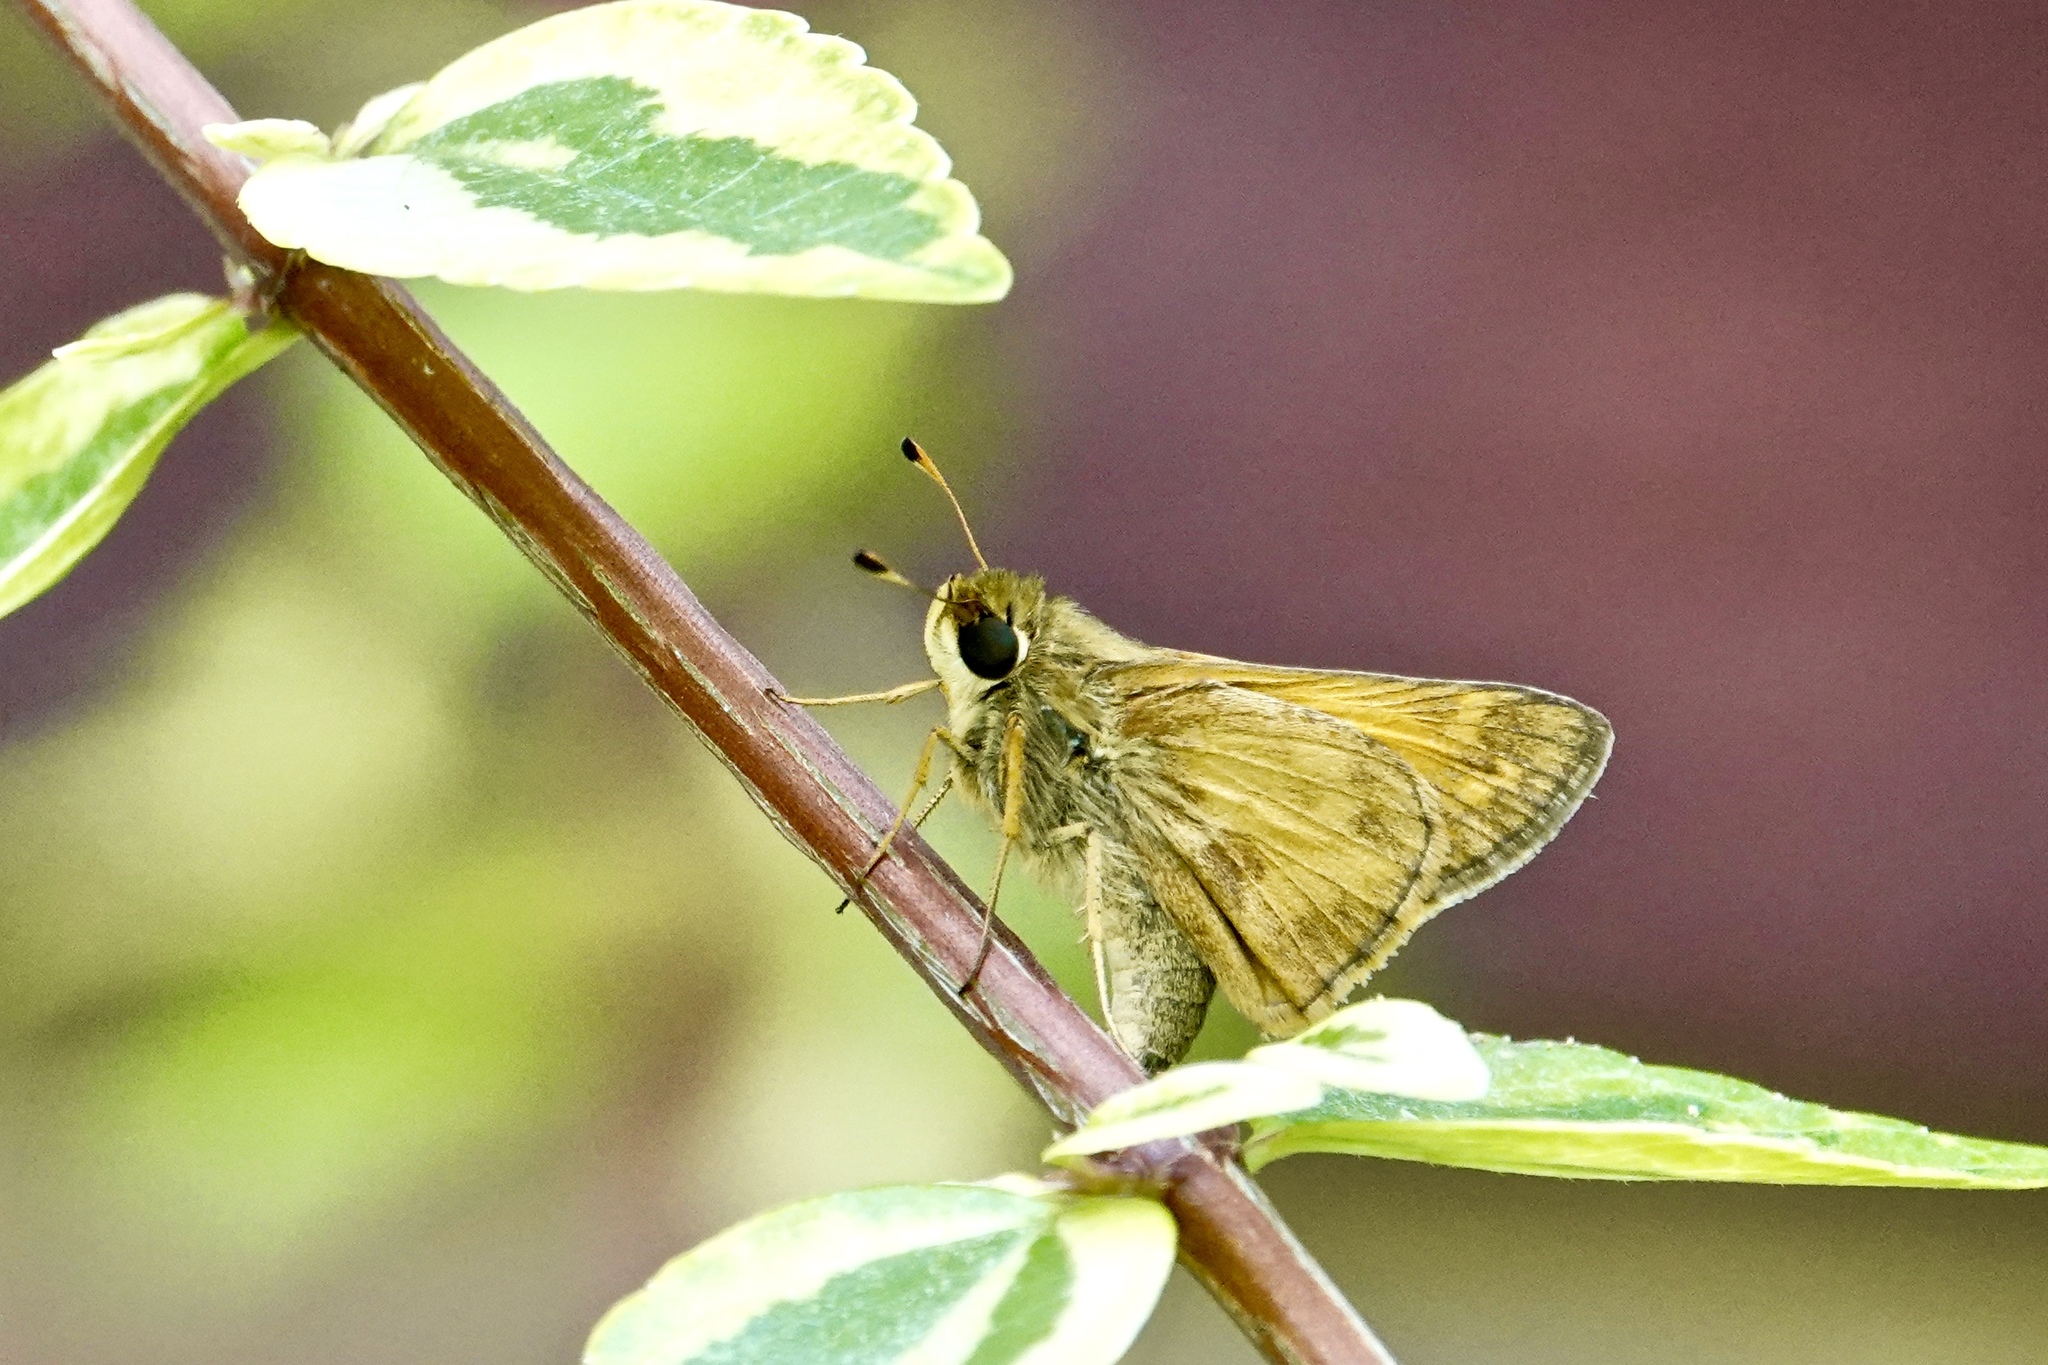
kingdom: Animalia
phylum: Arthropoda
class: Insecta
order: Lepidoptera
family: Hesperiidae
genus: Atalopedes
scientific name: Atalopedes
